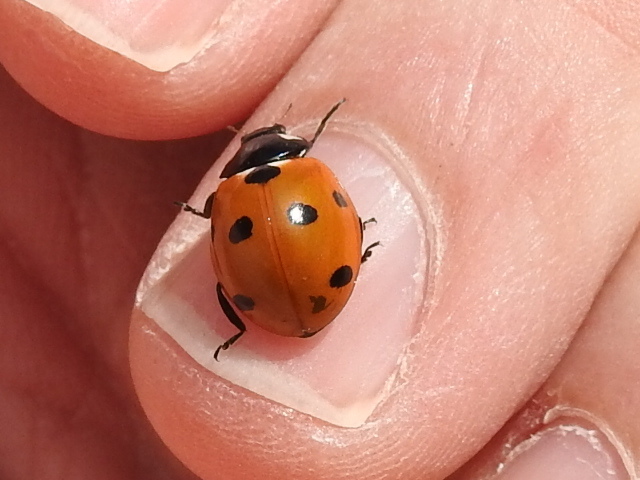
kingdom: Animalia
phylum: Arthropoda
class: Insecta
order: Coleoptera
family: Coccinellidae
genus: Coccinella
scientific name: Coccinella septempunctata
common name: Sevenspotted lady beetle
